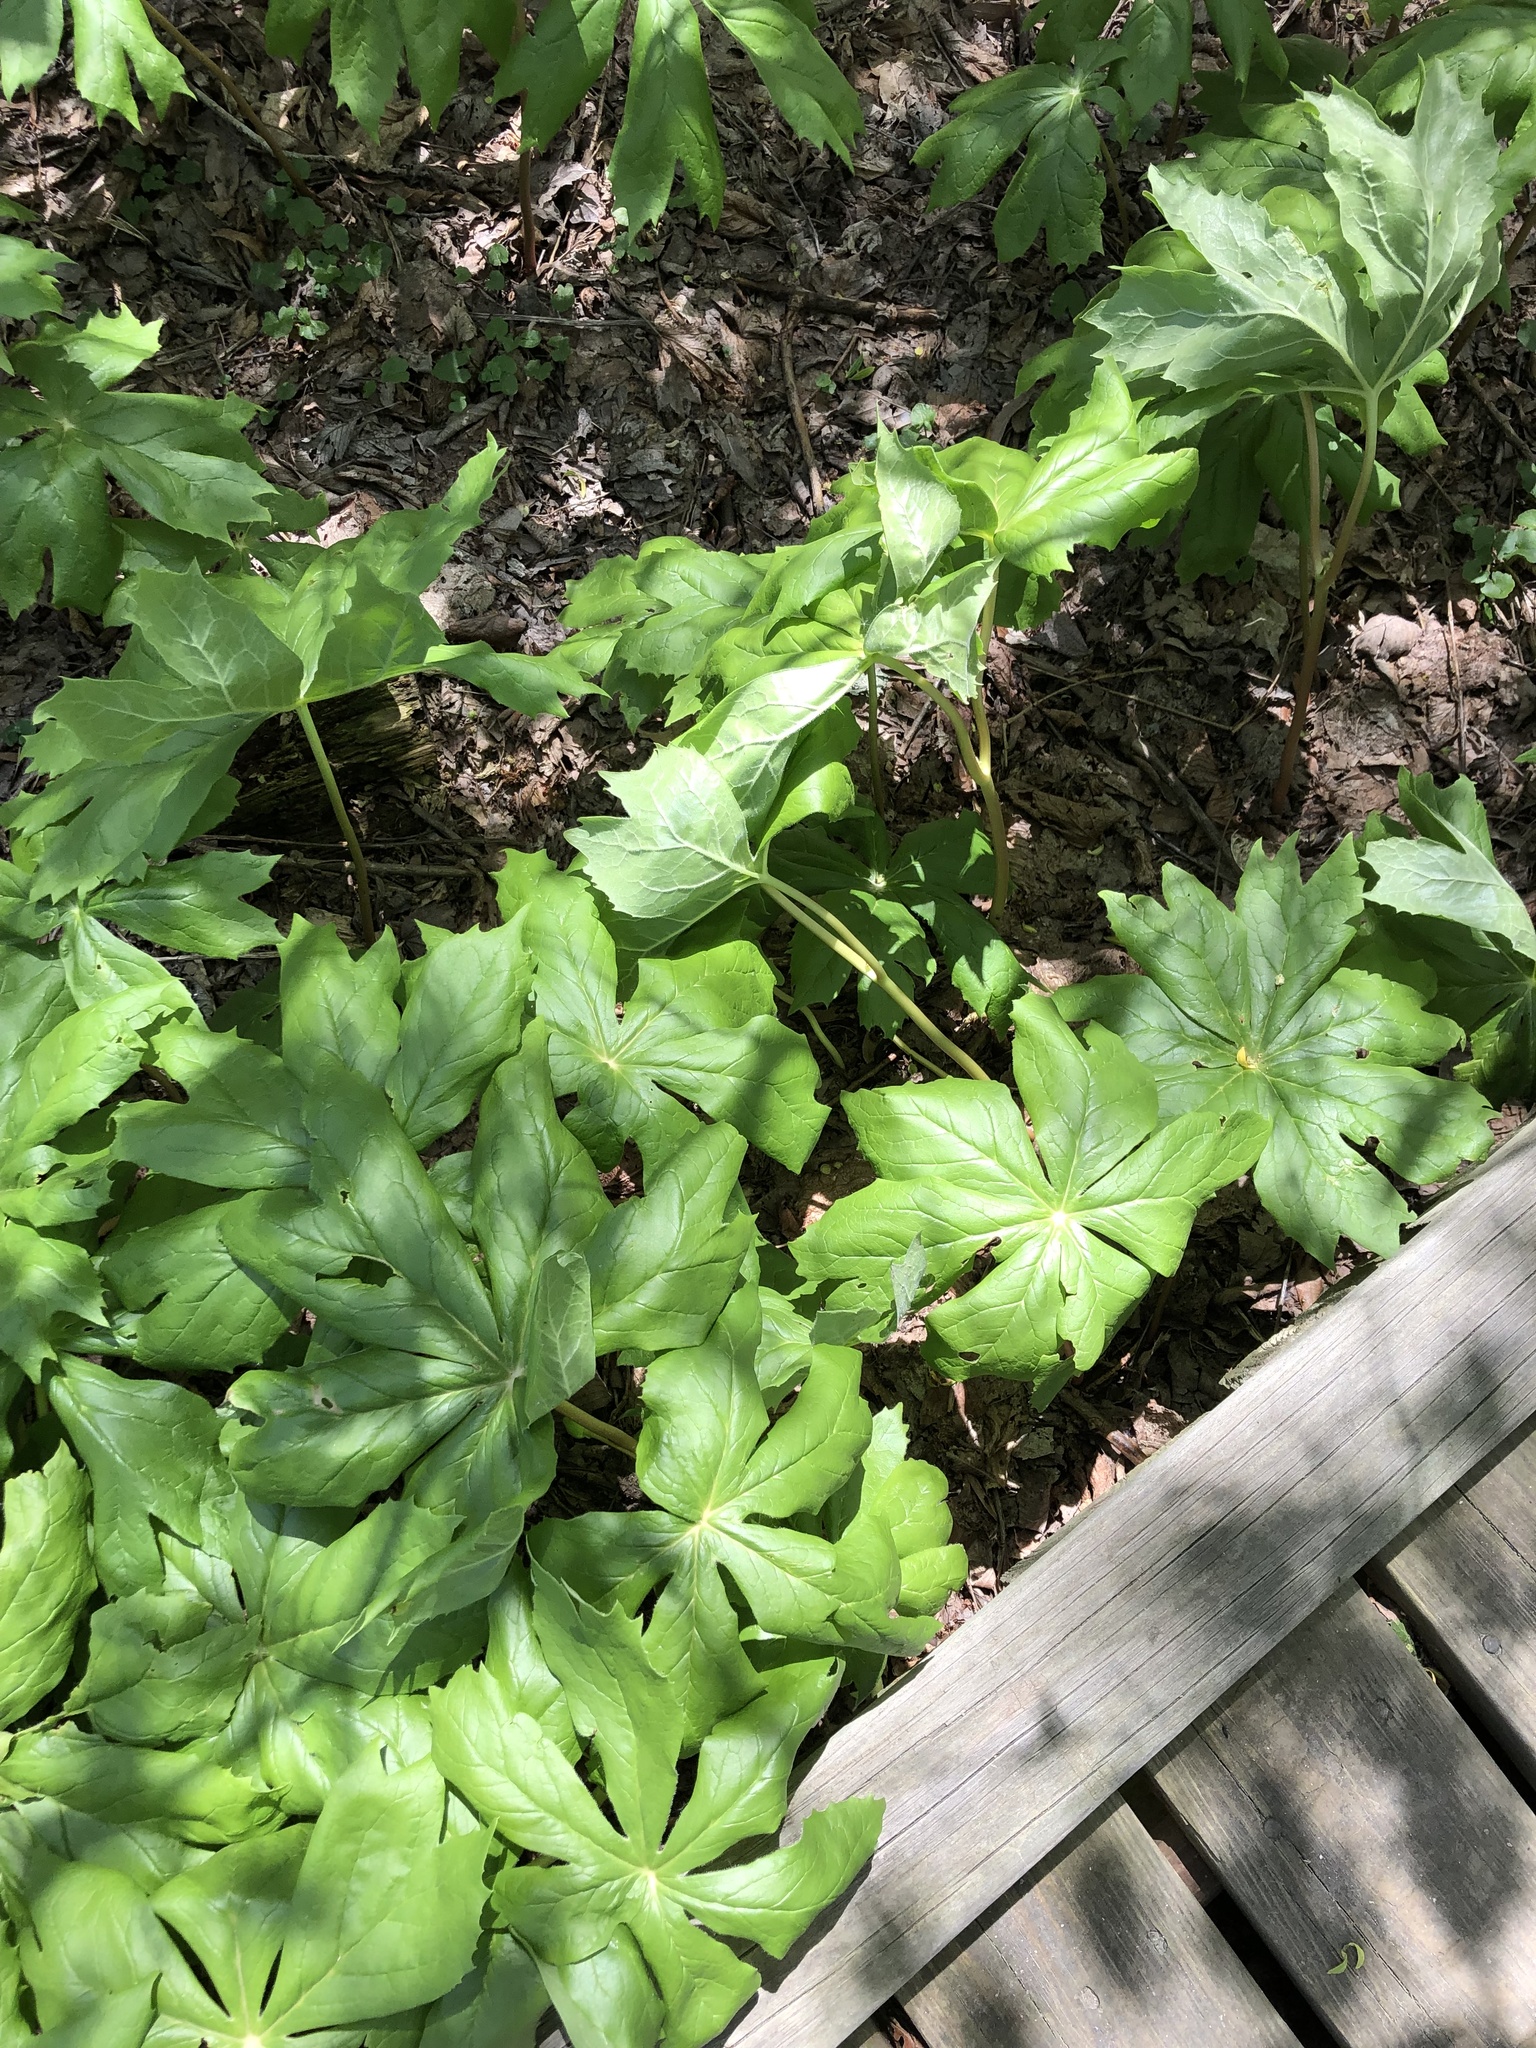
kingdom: Plantae
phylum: Tracheophyta
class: Magnoliopsida
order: Ranunculales
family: Berberidaceae
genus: Podophyllum
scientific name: Podophyllum peltatum
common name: Wild mandrake
